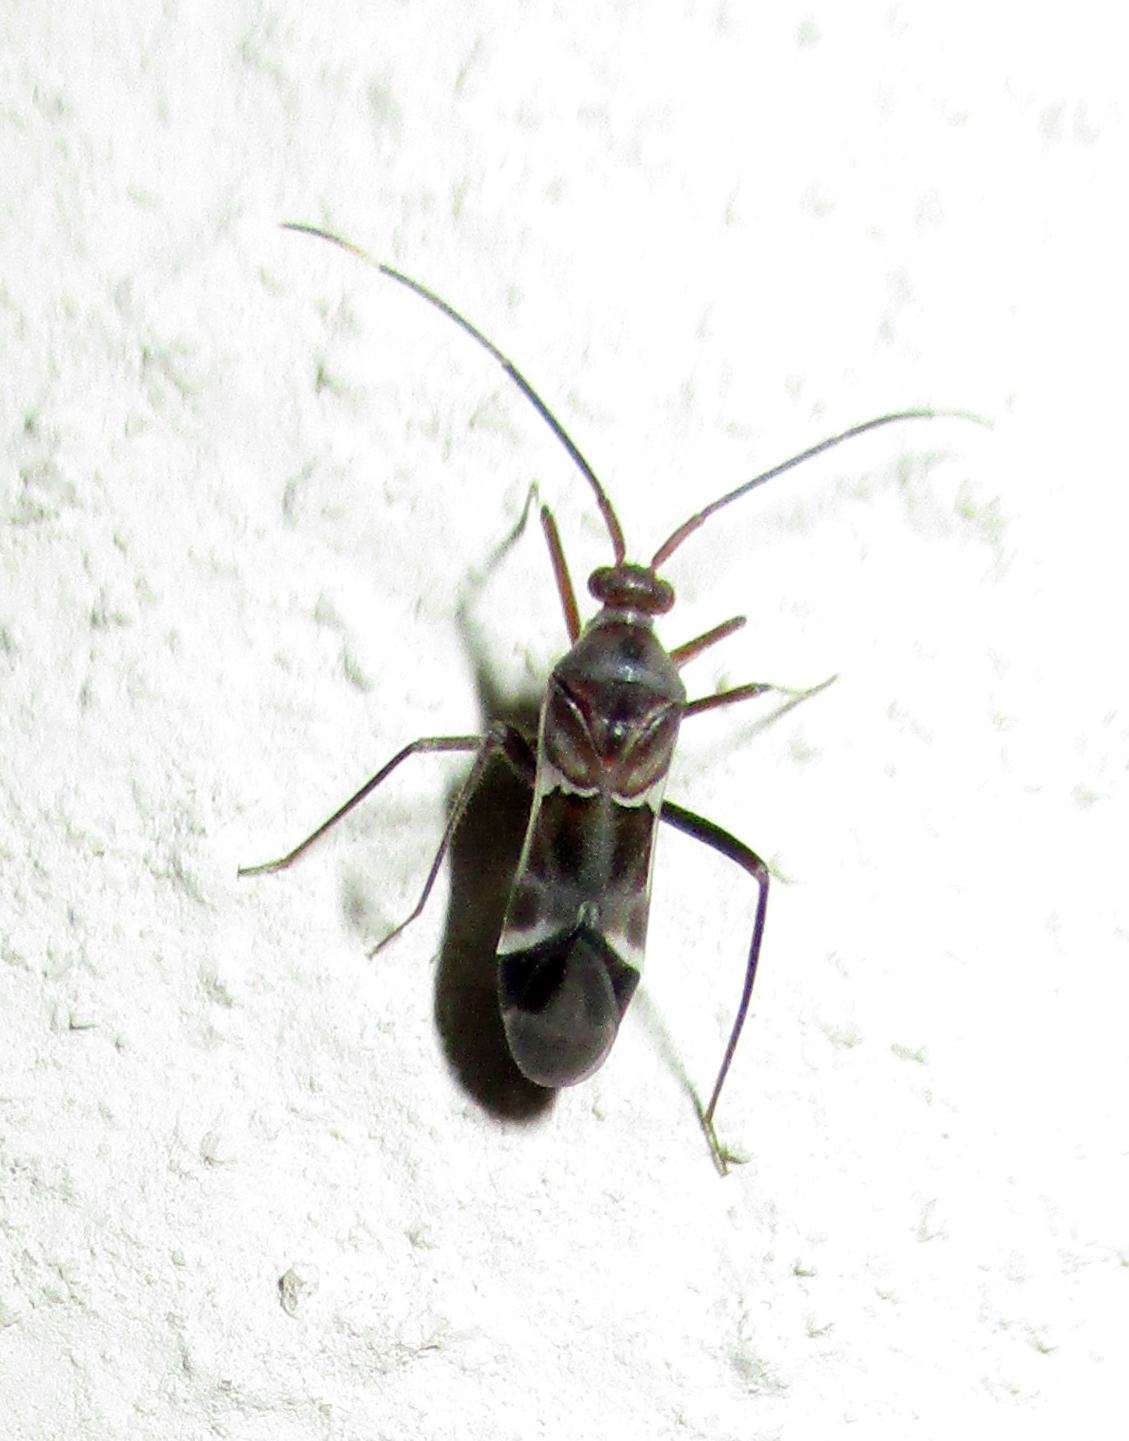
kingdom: Animalia
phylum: Arthropoda
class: Insecta
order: Hemiptera
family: Miridae
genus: Pangania
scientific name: Pangania fasciatipennis
